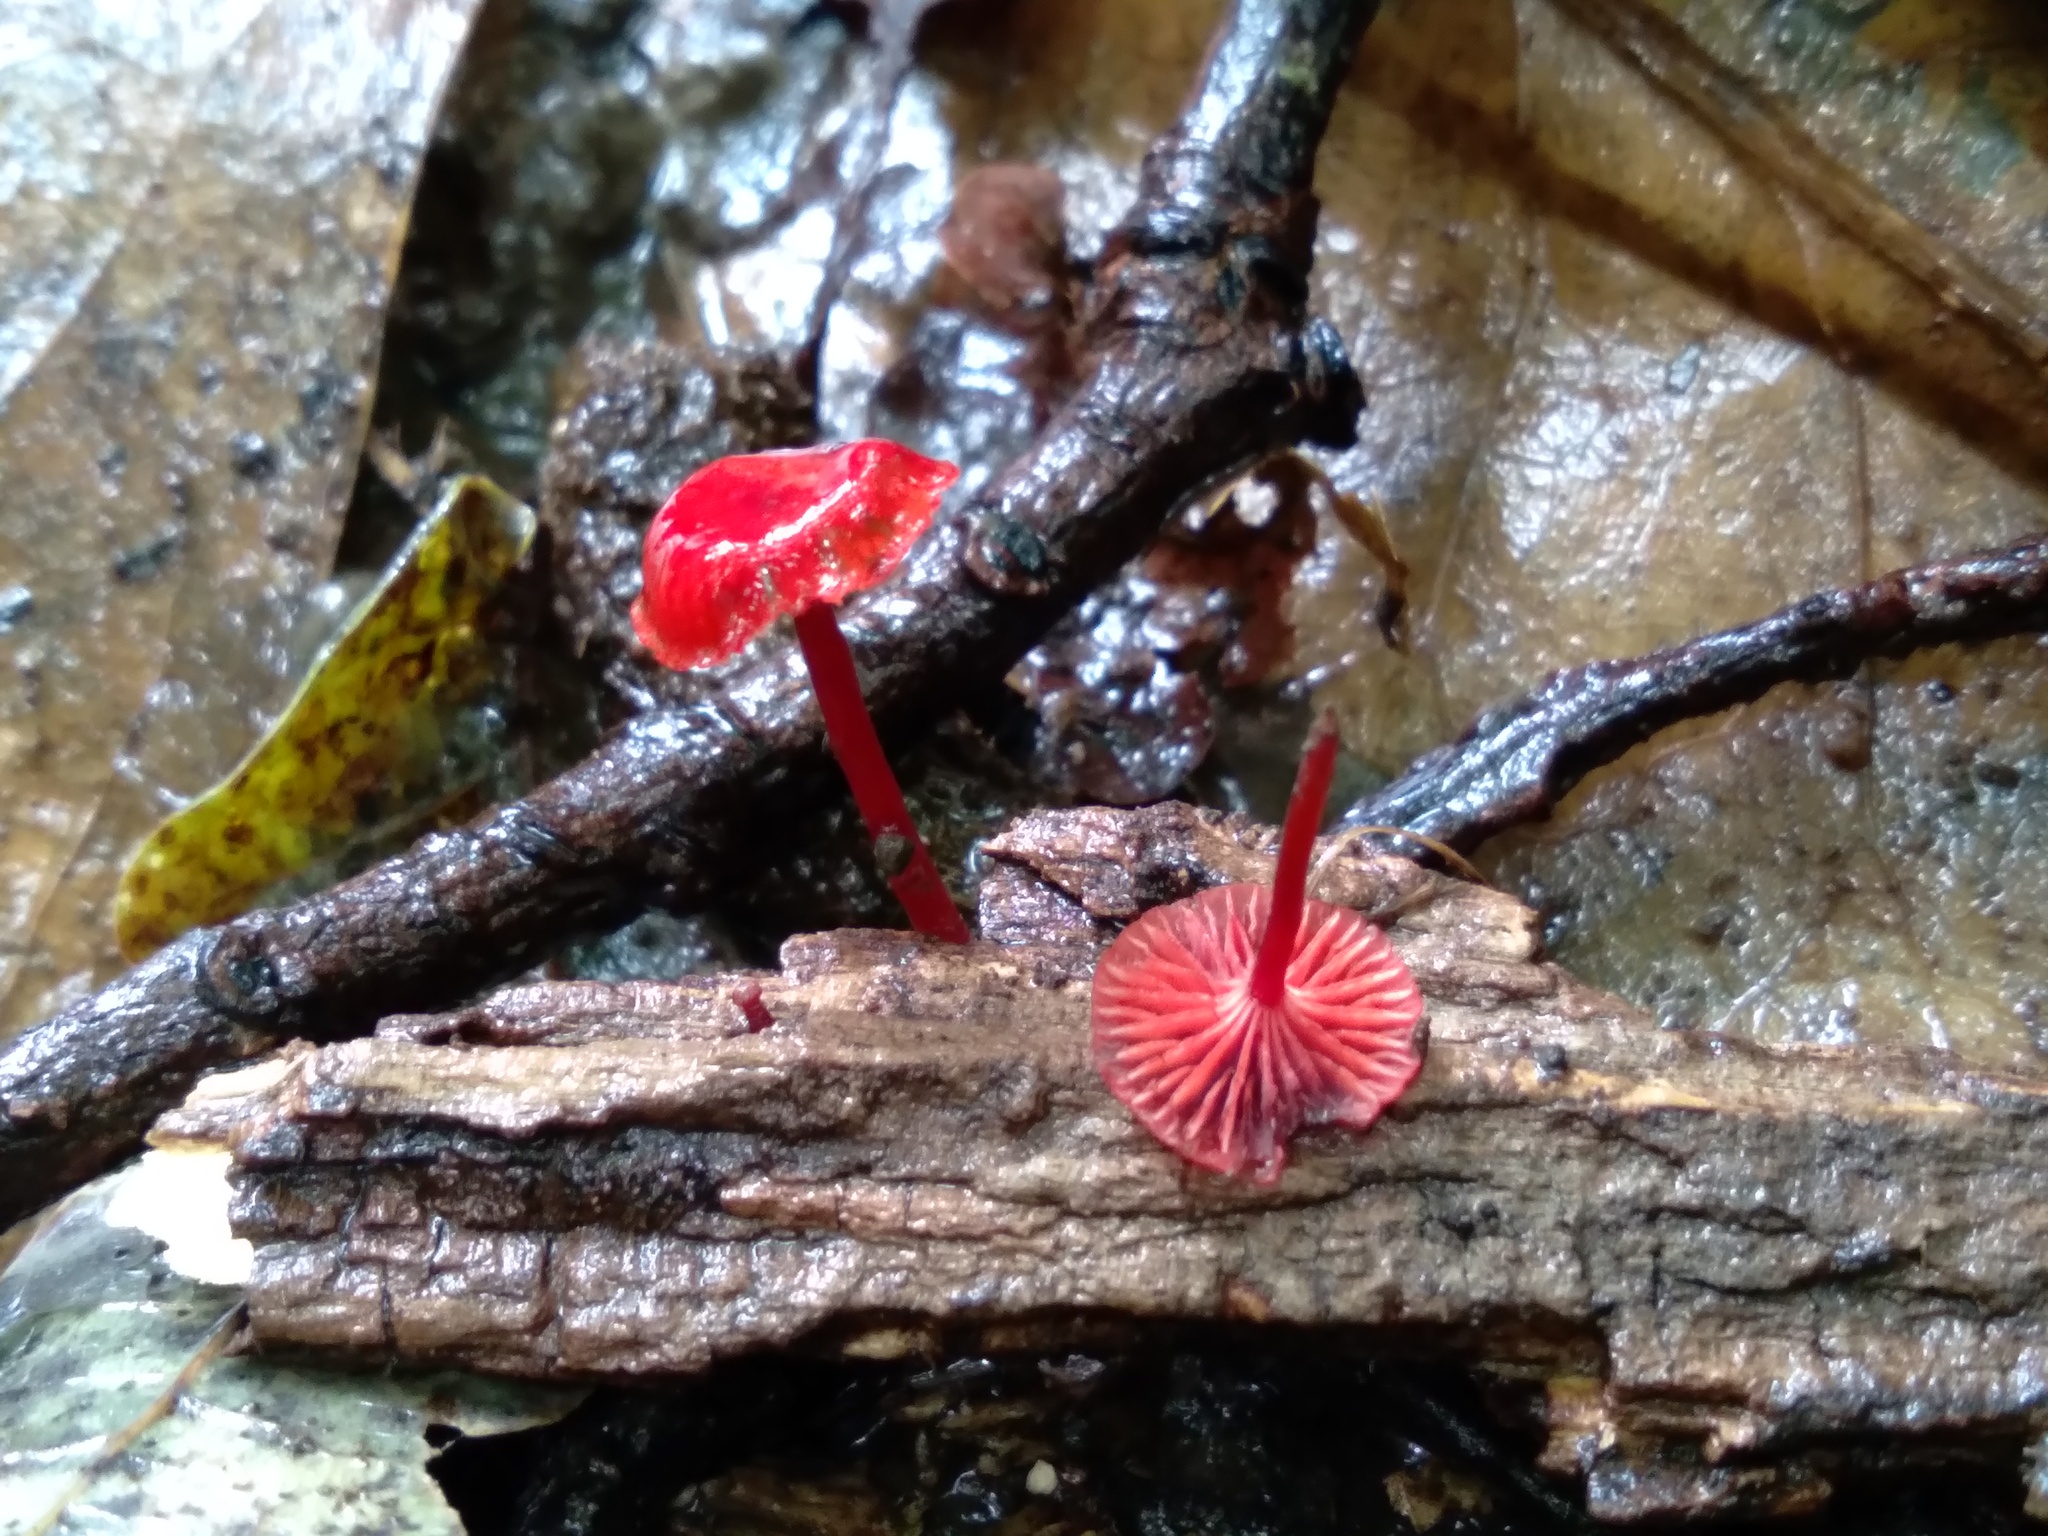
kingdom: Fungi
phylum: Basidiomycota
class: Agaricomycetes
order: Agaricales
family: Mycenaceae
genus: Cruentomycena
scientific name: Cruentomycena viscidocruenta
